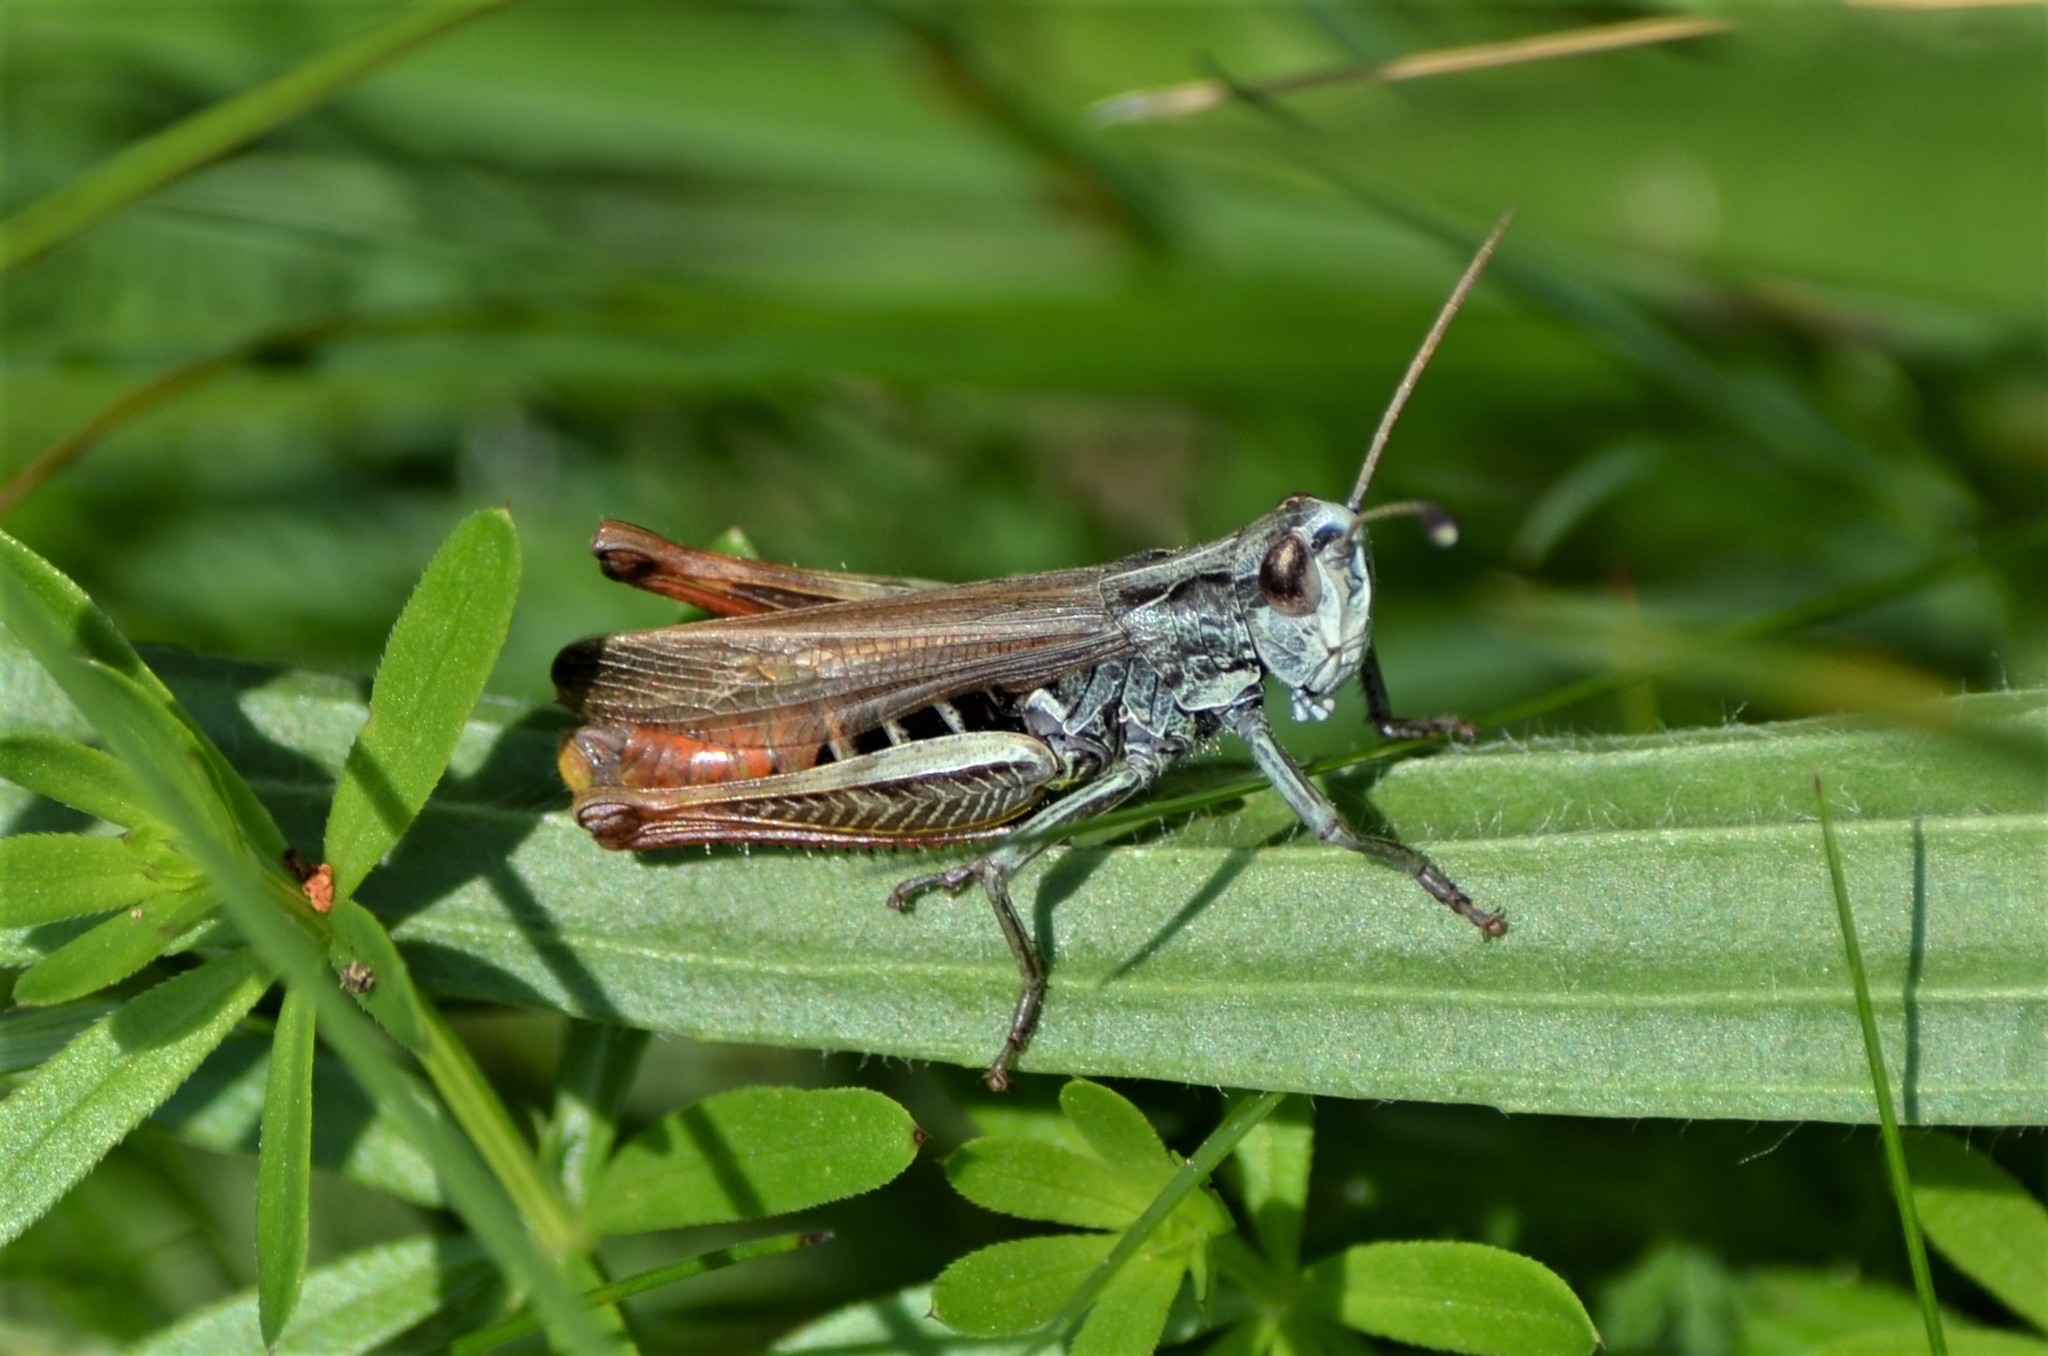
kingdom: Animalia
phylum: Arthropoda
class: Insecta
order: Orthoptera
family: Acrididae
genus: Gomphocerippus
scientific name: Gomphocerippus rufus
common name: Rufous grasshopper
